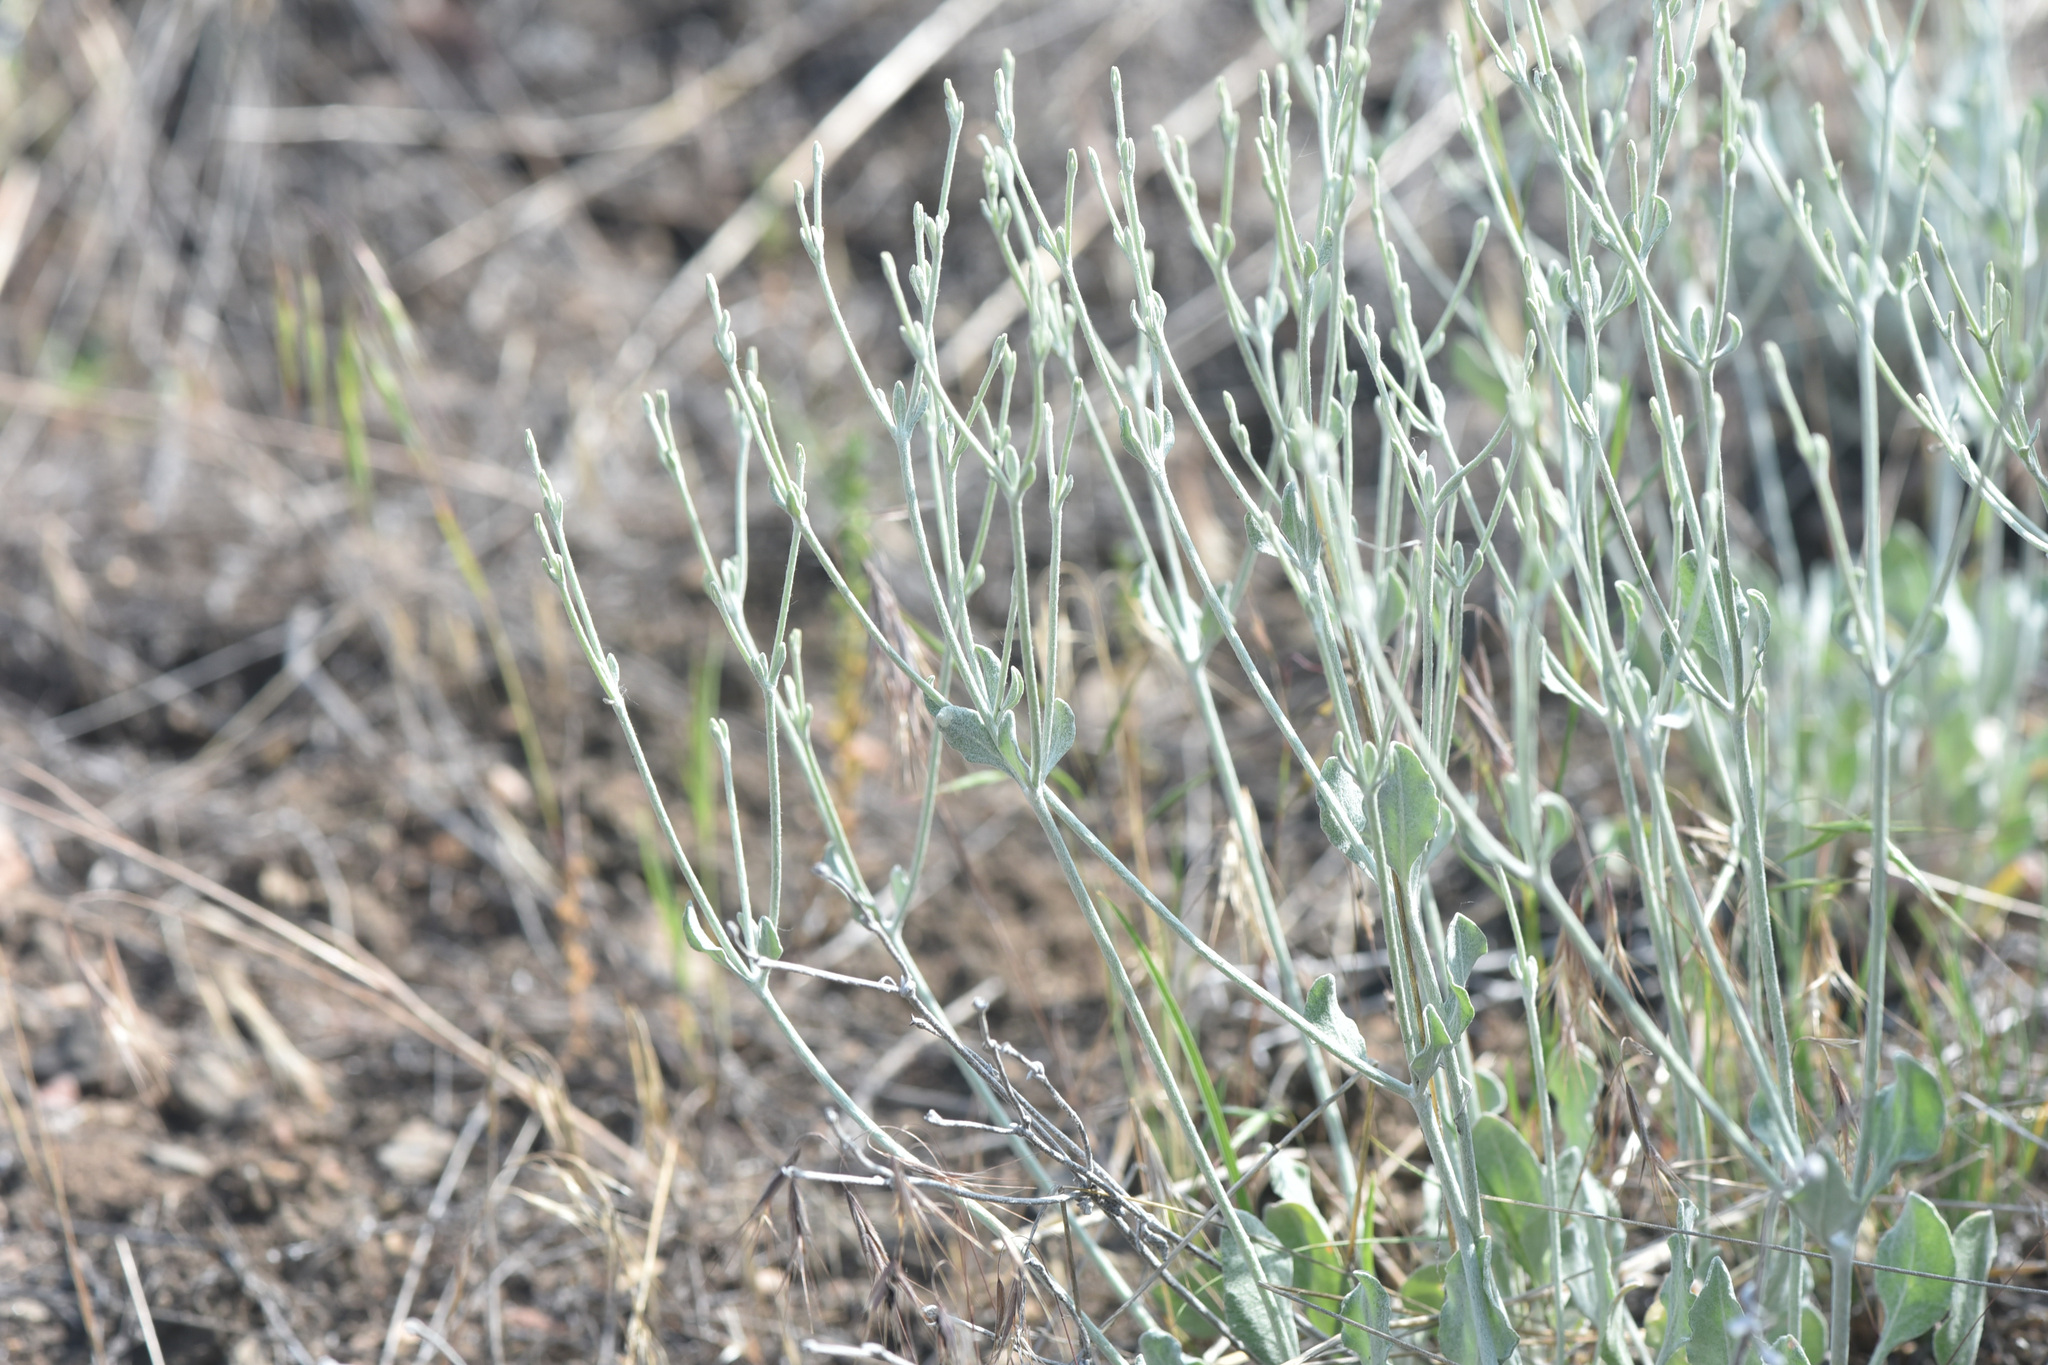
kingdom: Plantae
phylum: Tracheophyta
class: Magnoliopsida
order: Caryophyllales
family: Polygonaceae
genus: Eriogonum
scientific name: Eriogonum niveum
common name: Snow wild buckwheat
